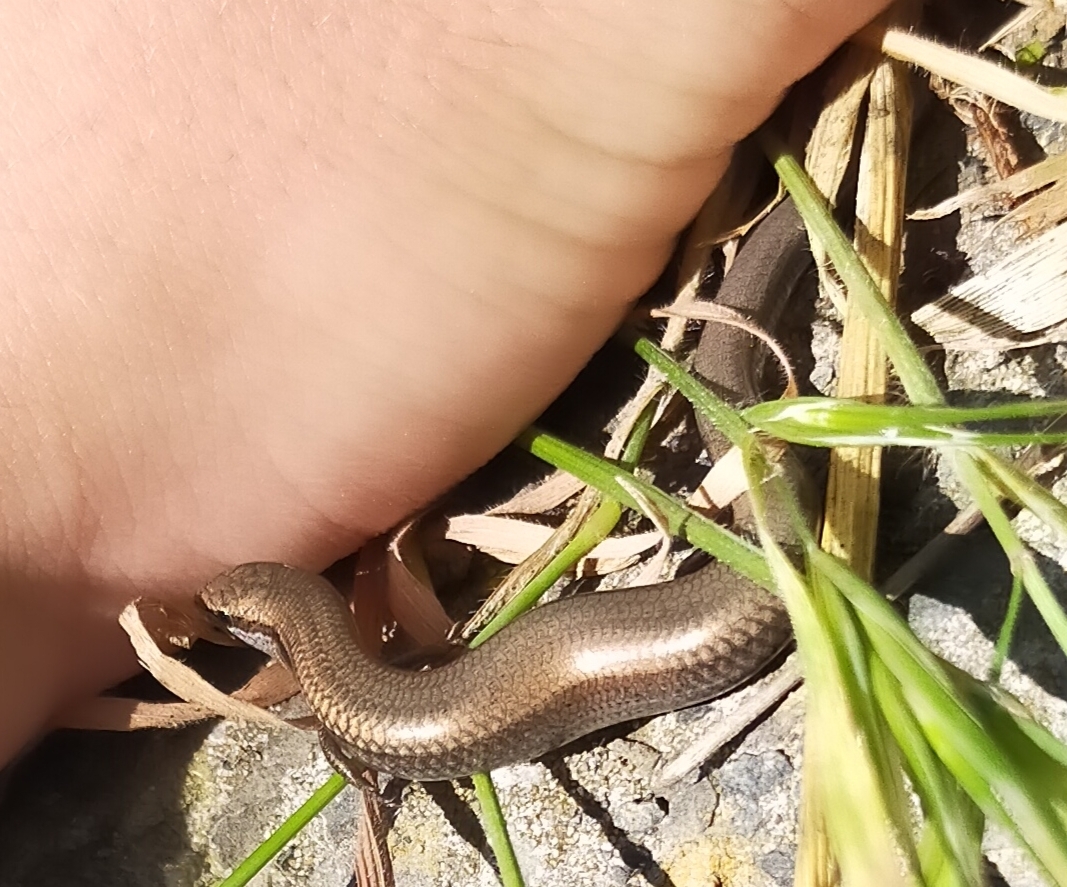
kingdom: Animalia
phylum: Chordata
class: Squamata
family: Scincidae
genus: Ablepharus
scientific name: Ablepharus kitaibelii
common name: Juniper skink
